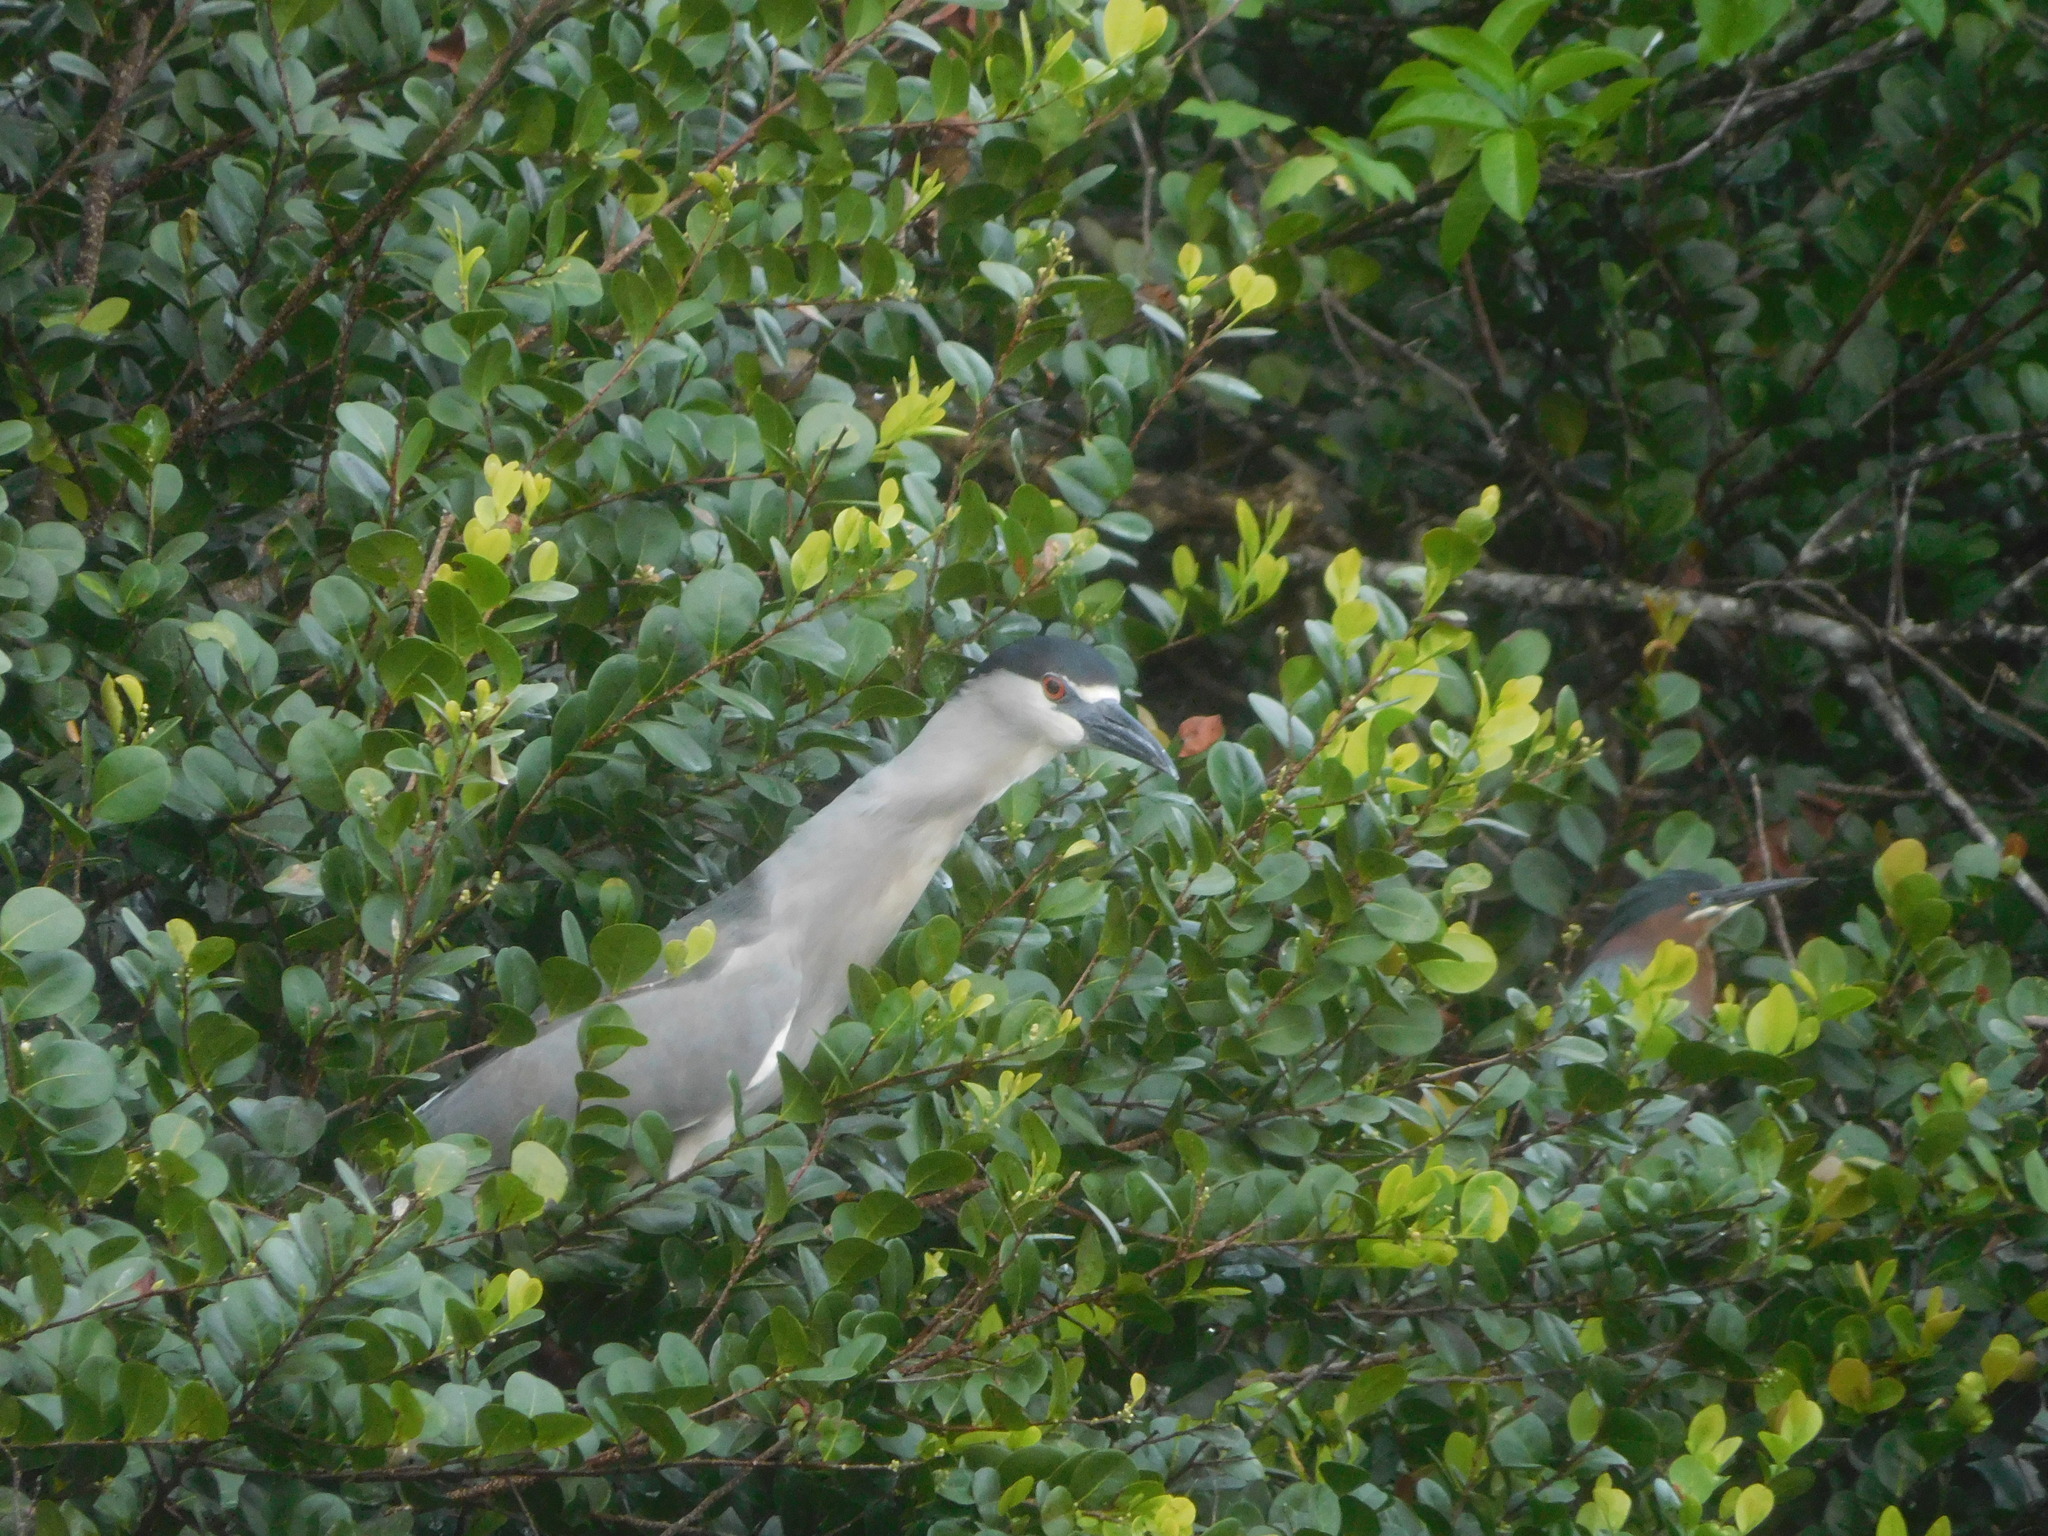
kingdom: Animalia
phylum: Chordata
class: Aves
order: Pelecaniformes
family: Ardeidae
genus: Nycticorax
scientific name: Nycticorax nycticorax
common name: Black-crowned night heron
